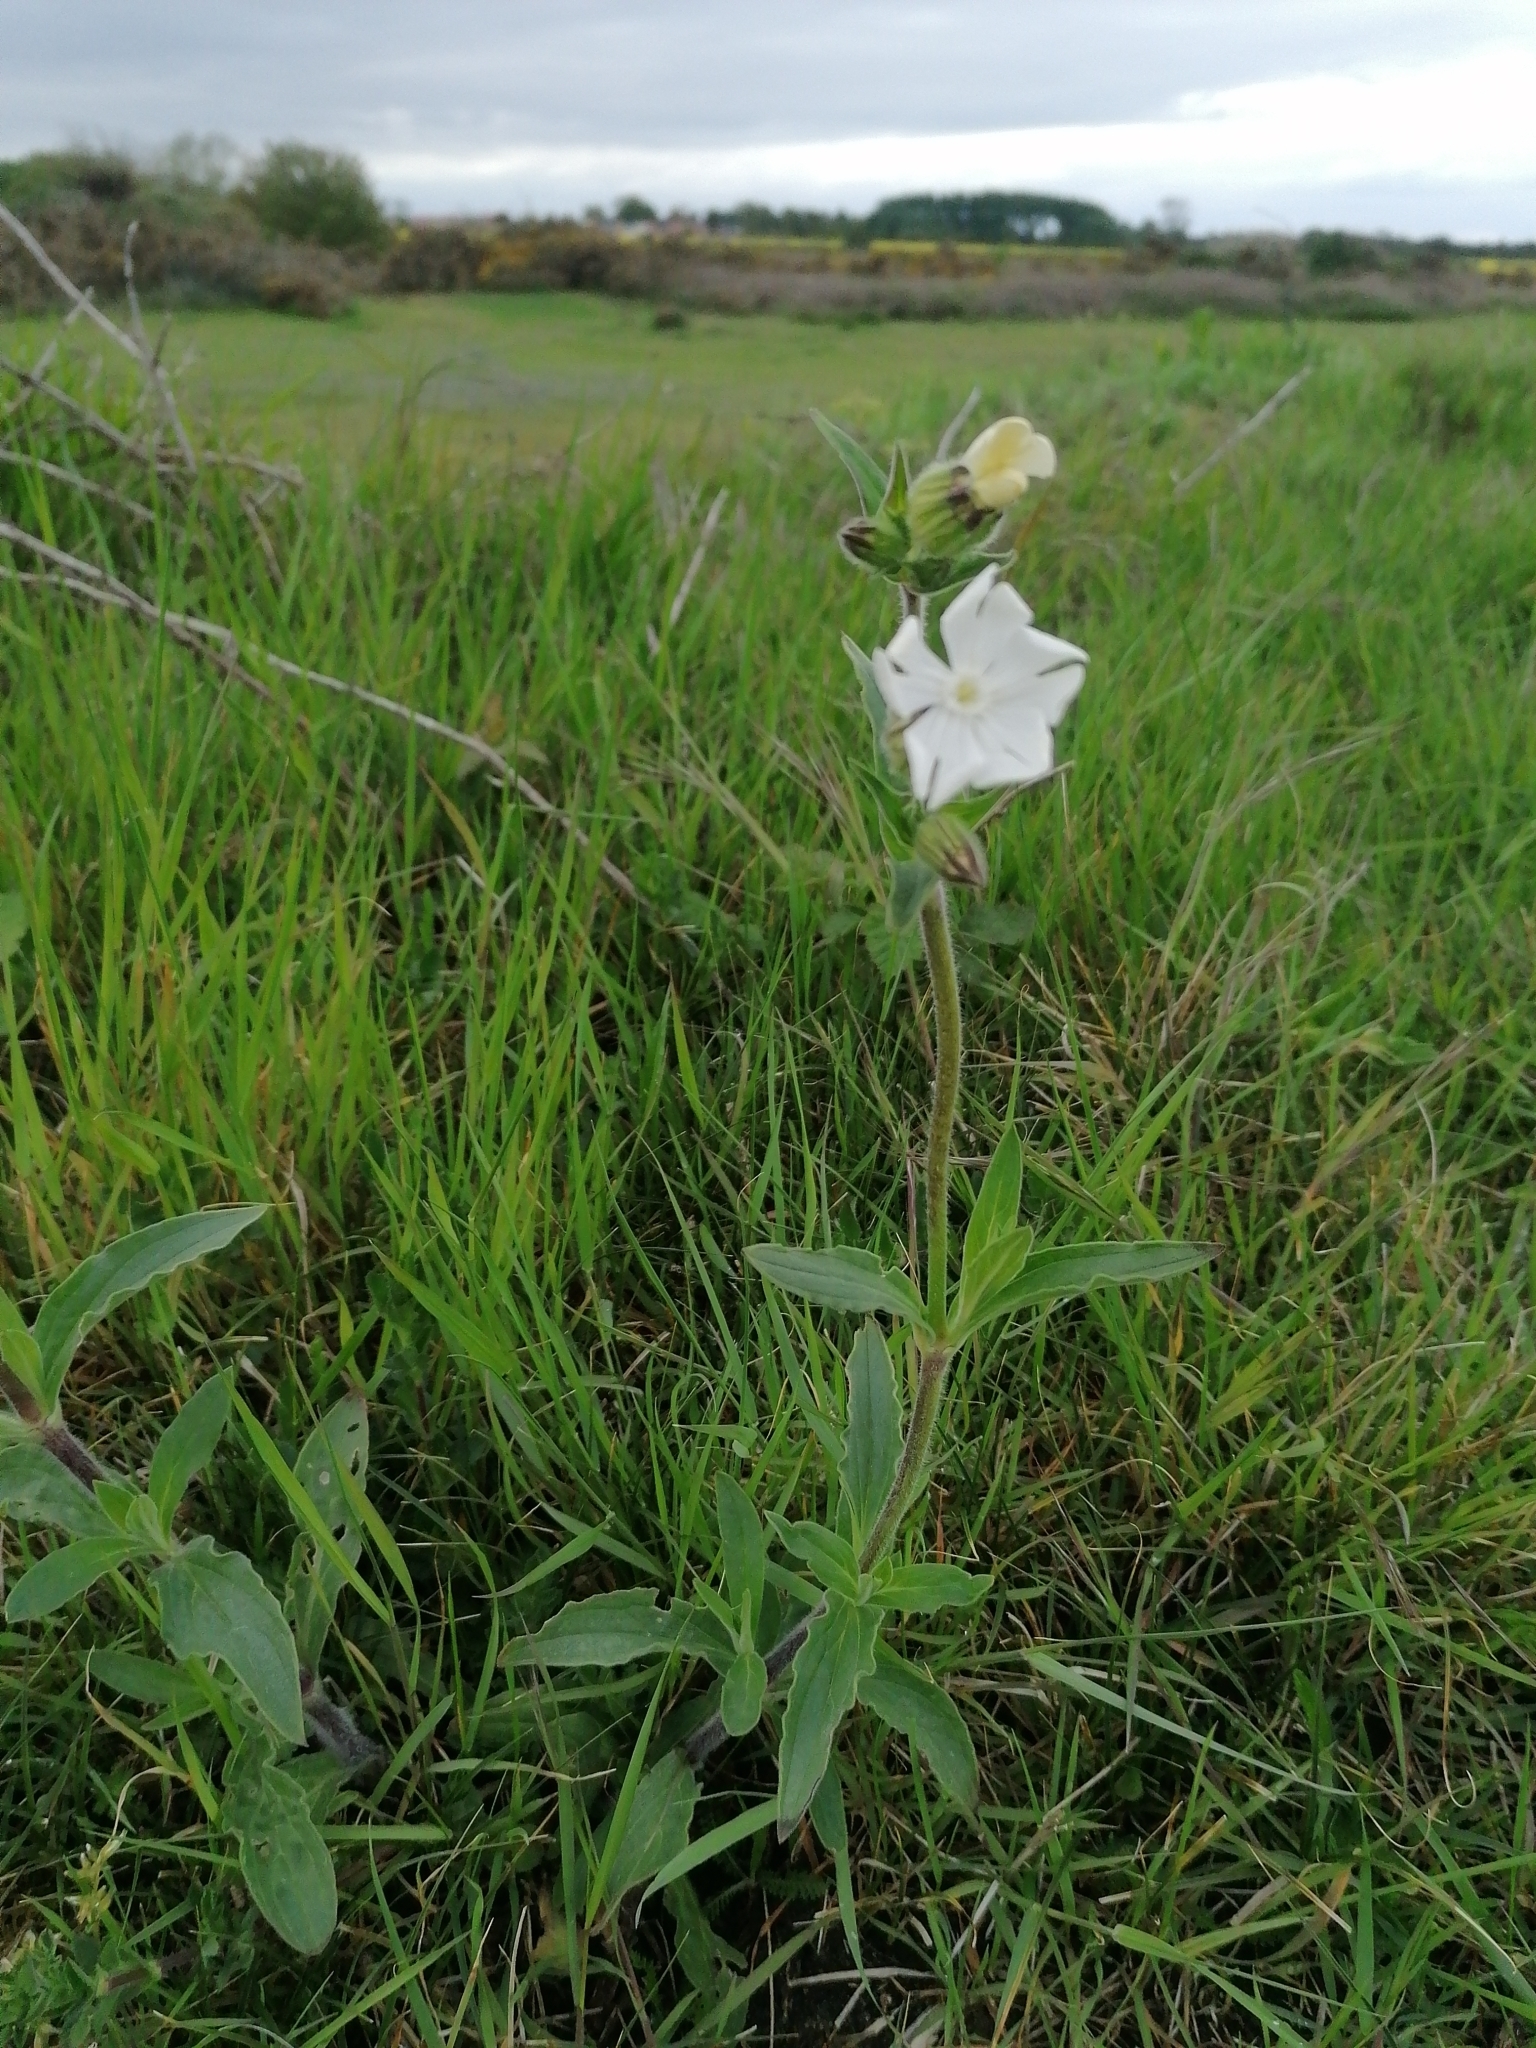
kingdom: Plantae
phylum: Tracheophyta
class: Magnoliopsida
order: Caryophyllales
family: Caryophyllaceae
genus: Silene
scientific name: Silene latifolia
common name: White campion
